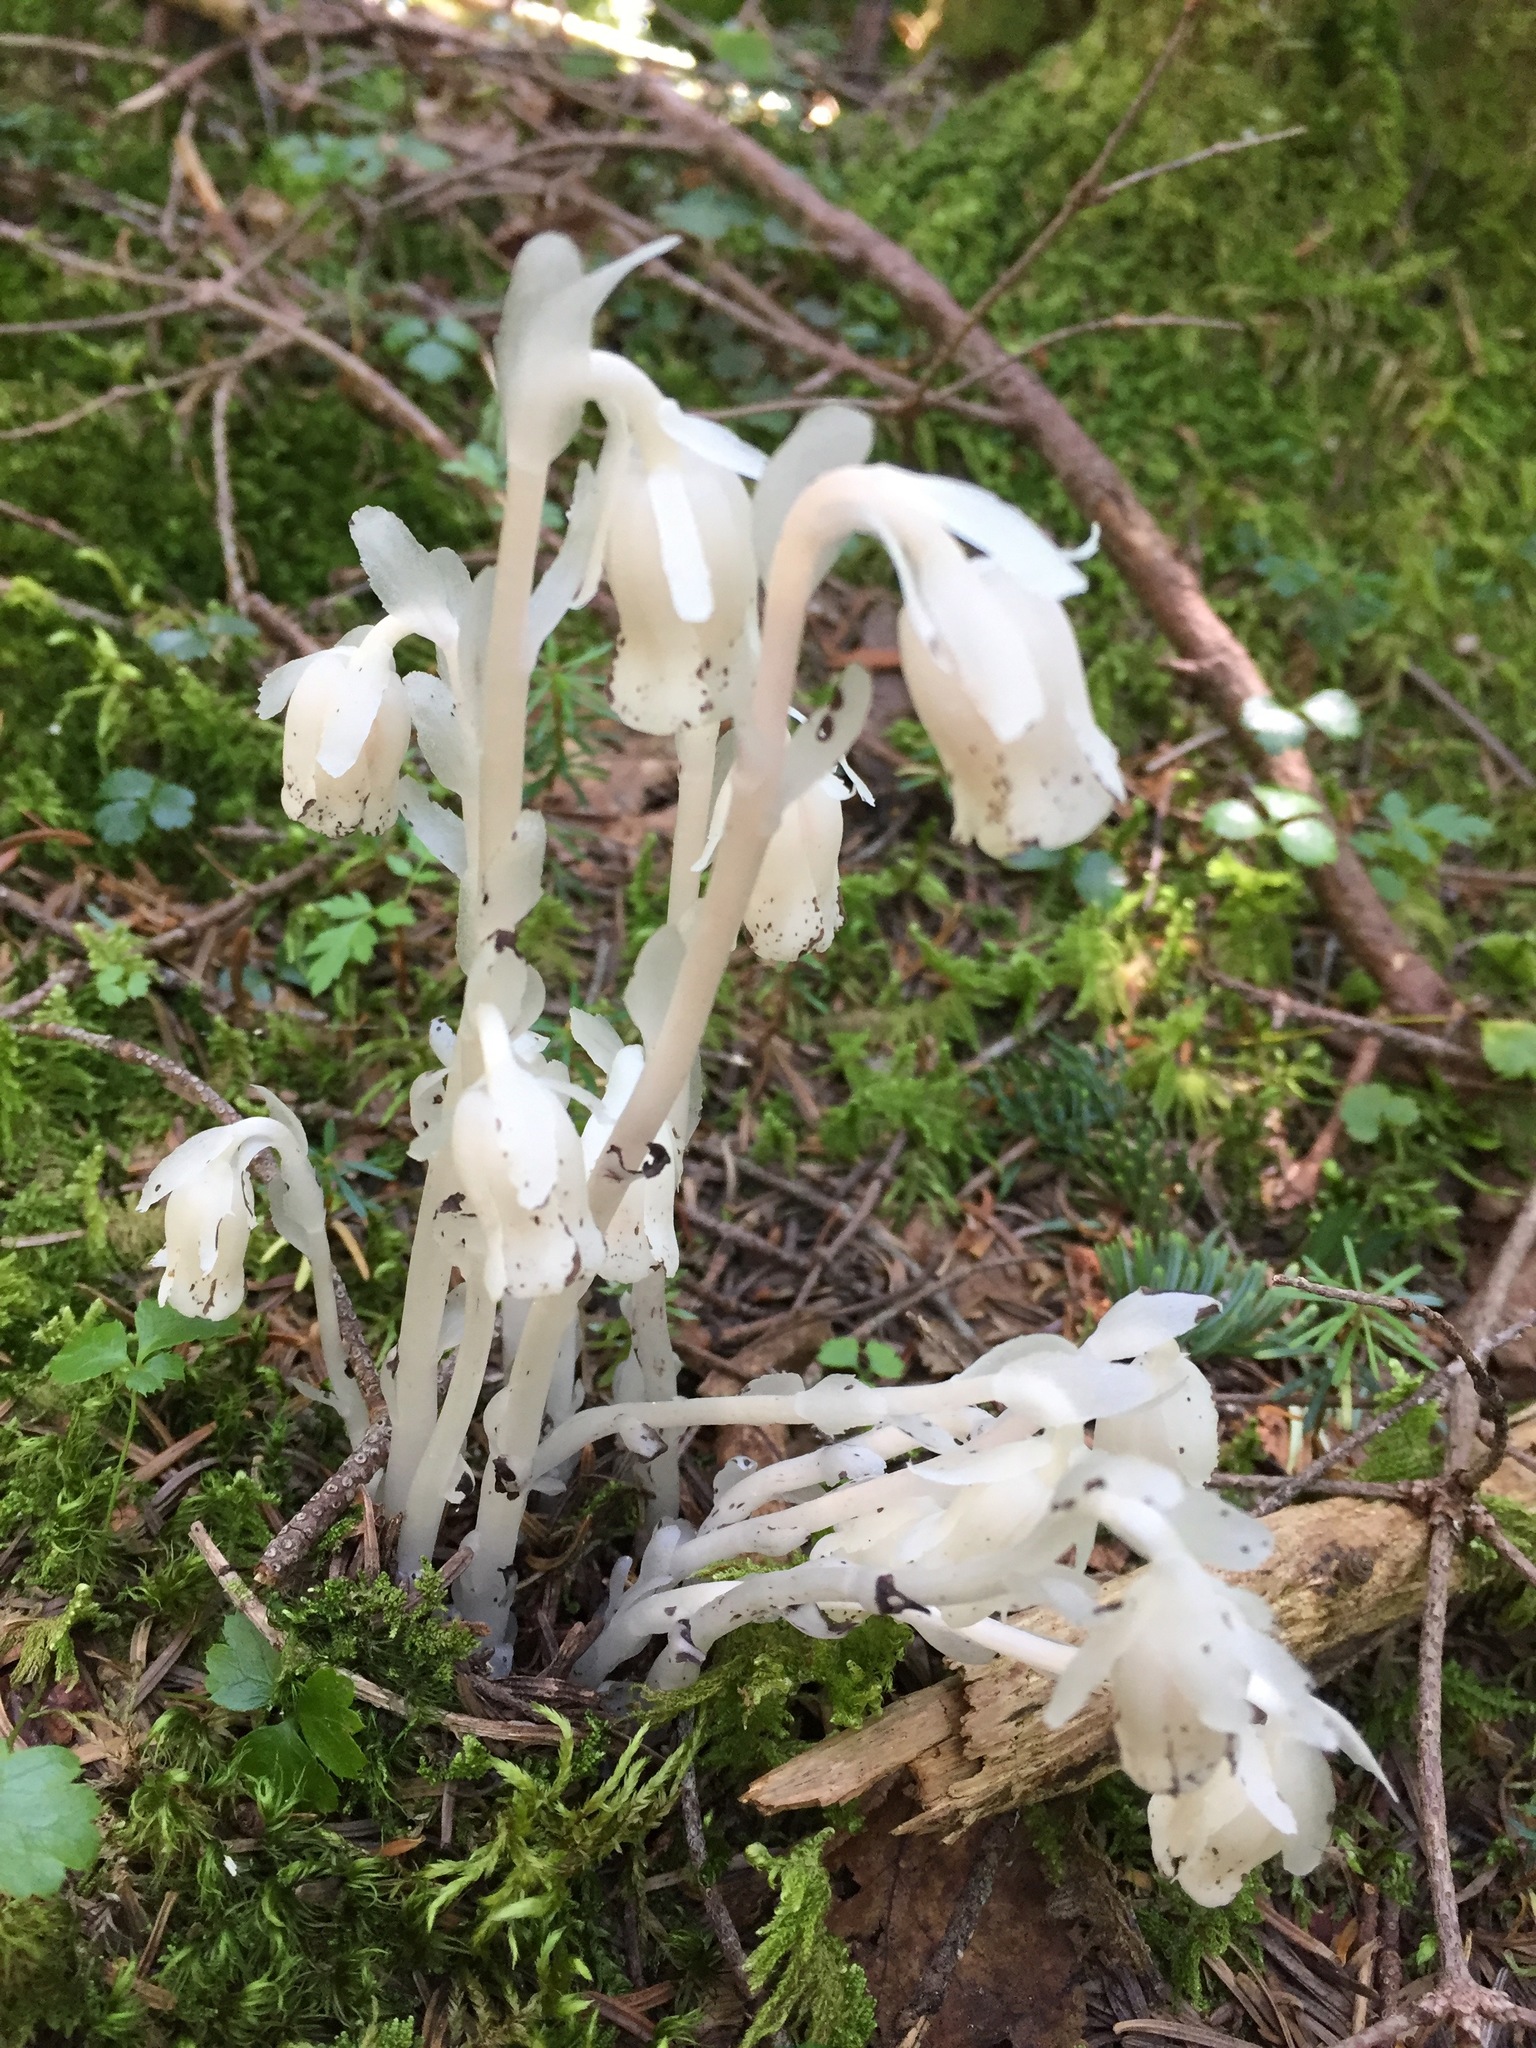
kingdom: Plantae
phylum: Tracheophyta
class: Magnoliopsida
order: Ericales
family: Ericaceae
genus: Monotropa
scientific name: Monotropa uniflora
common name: Convulsion root
